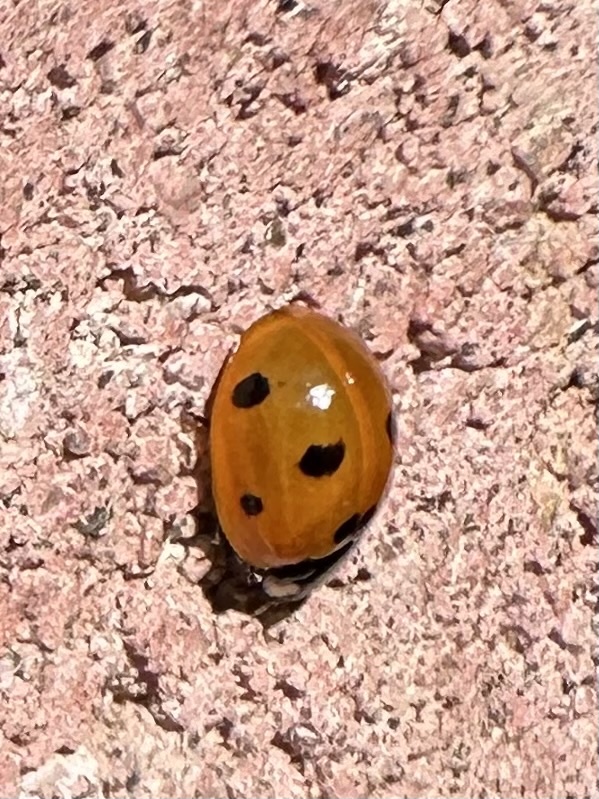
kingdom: Animalia
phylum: Arthropoda
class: Insecta
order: Coleoptera
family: Coccinellidae
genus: Coccinella
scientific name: Coccinella septempunctata
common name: Sevenspotted lady beetle
